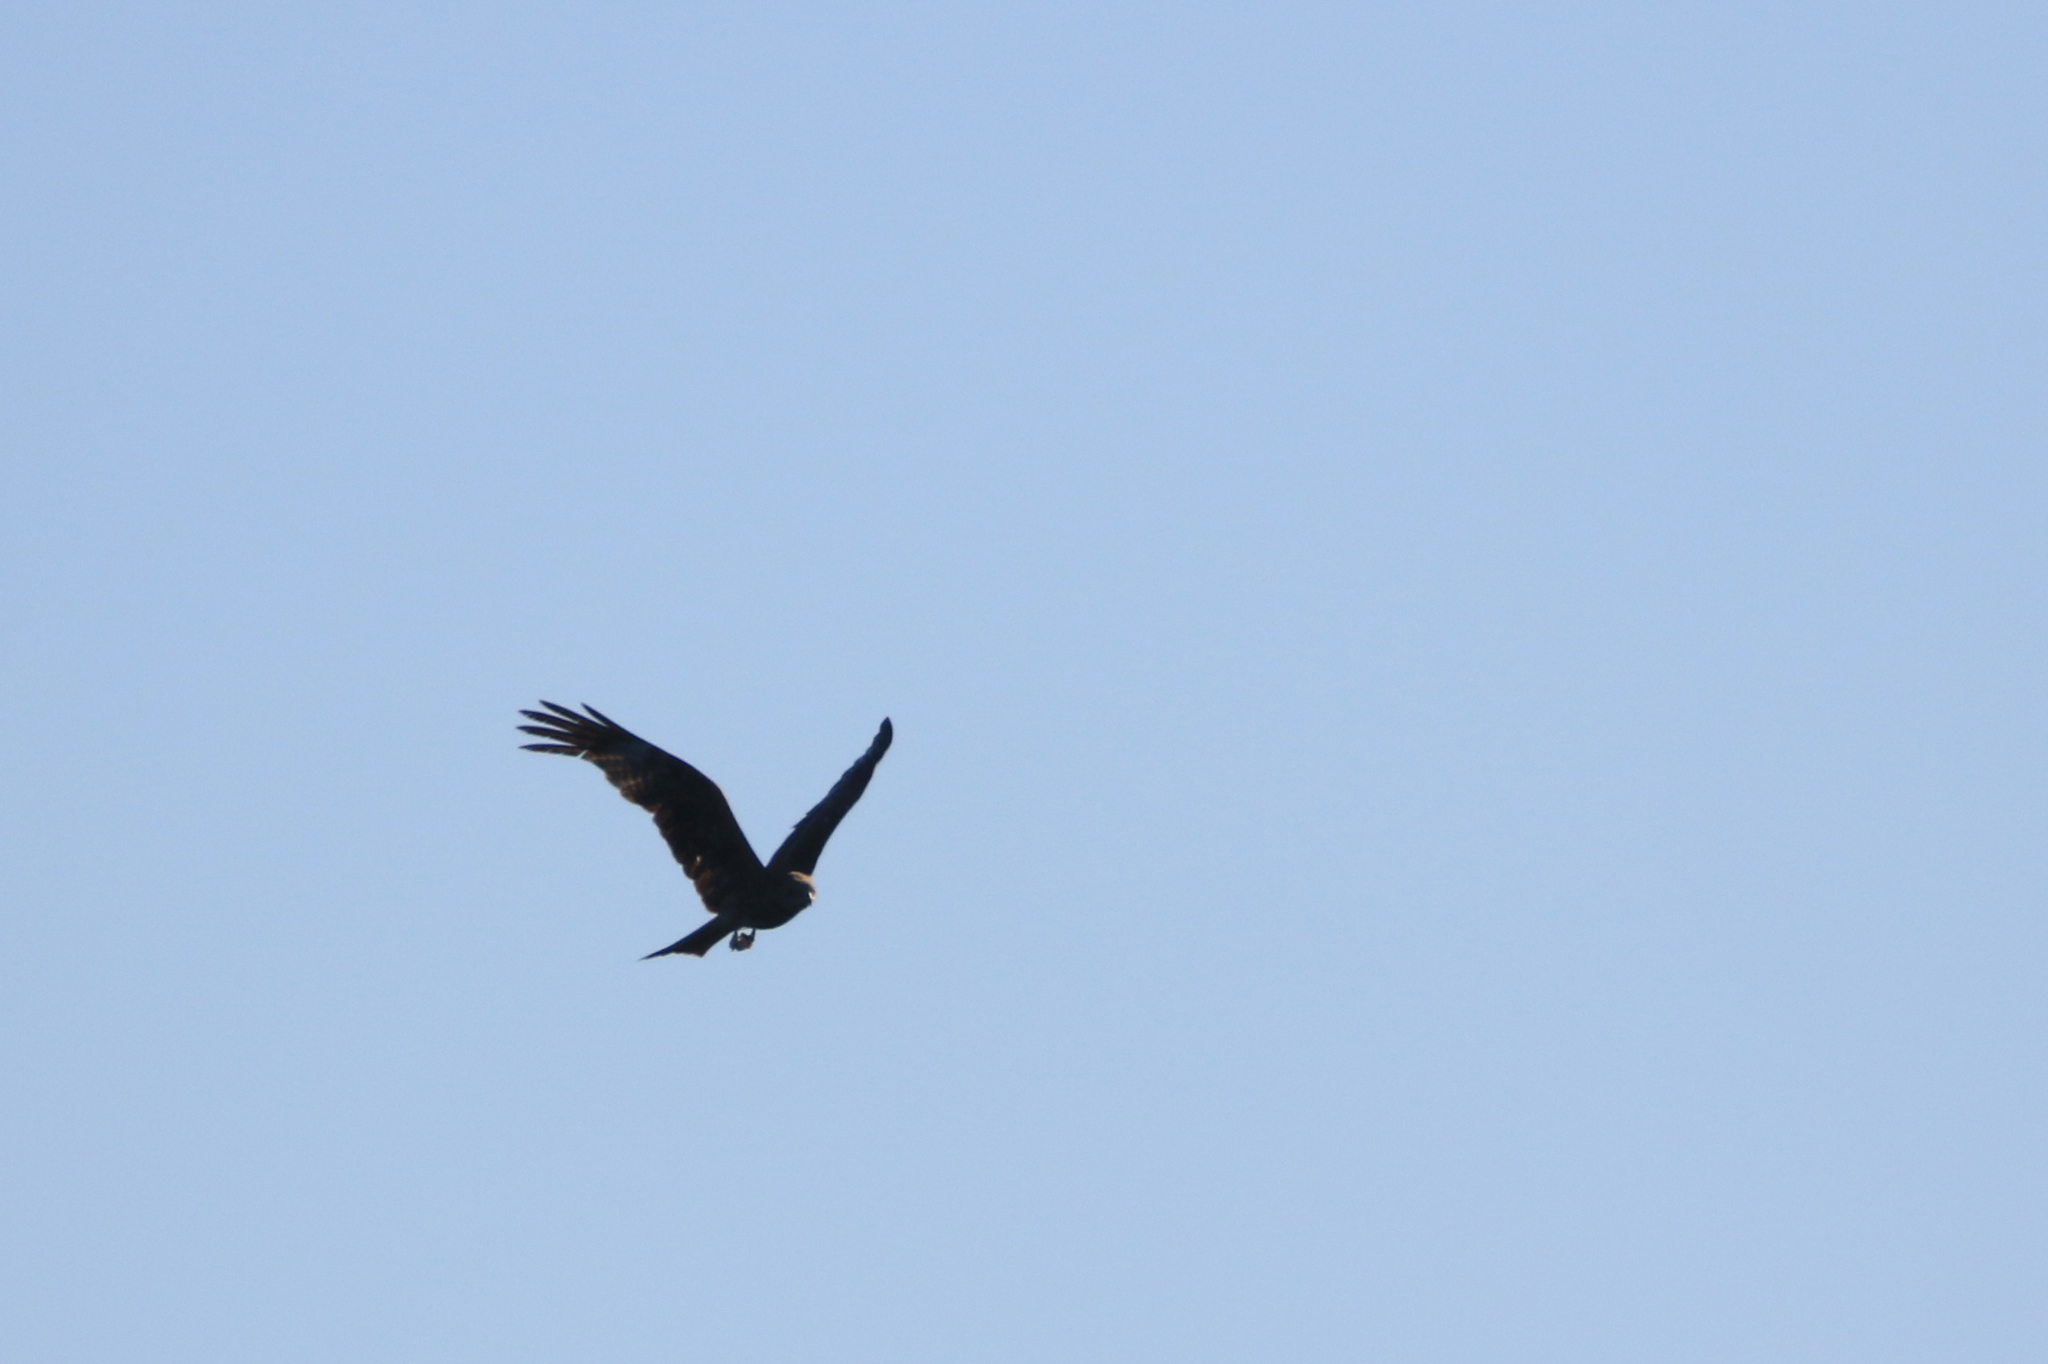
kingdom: Animalia
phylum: Chordata
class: Aves
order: Accipitriformes
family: Accipitridae
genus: Milvus
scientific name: Milvus migrans
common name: Black kite
